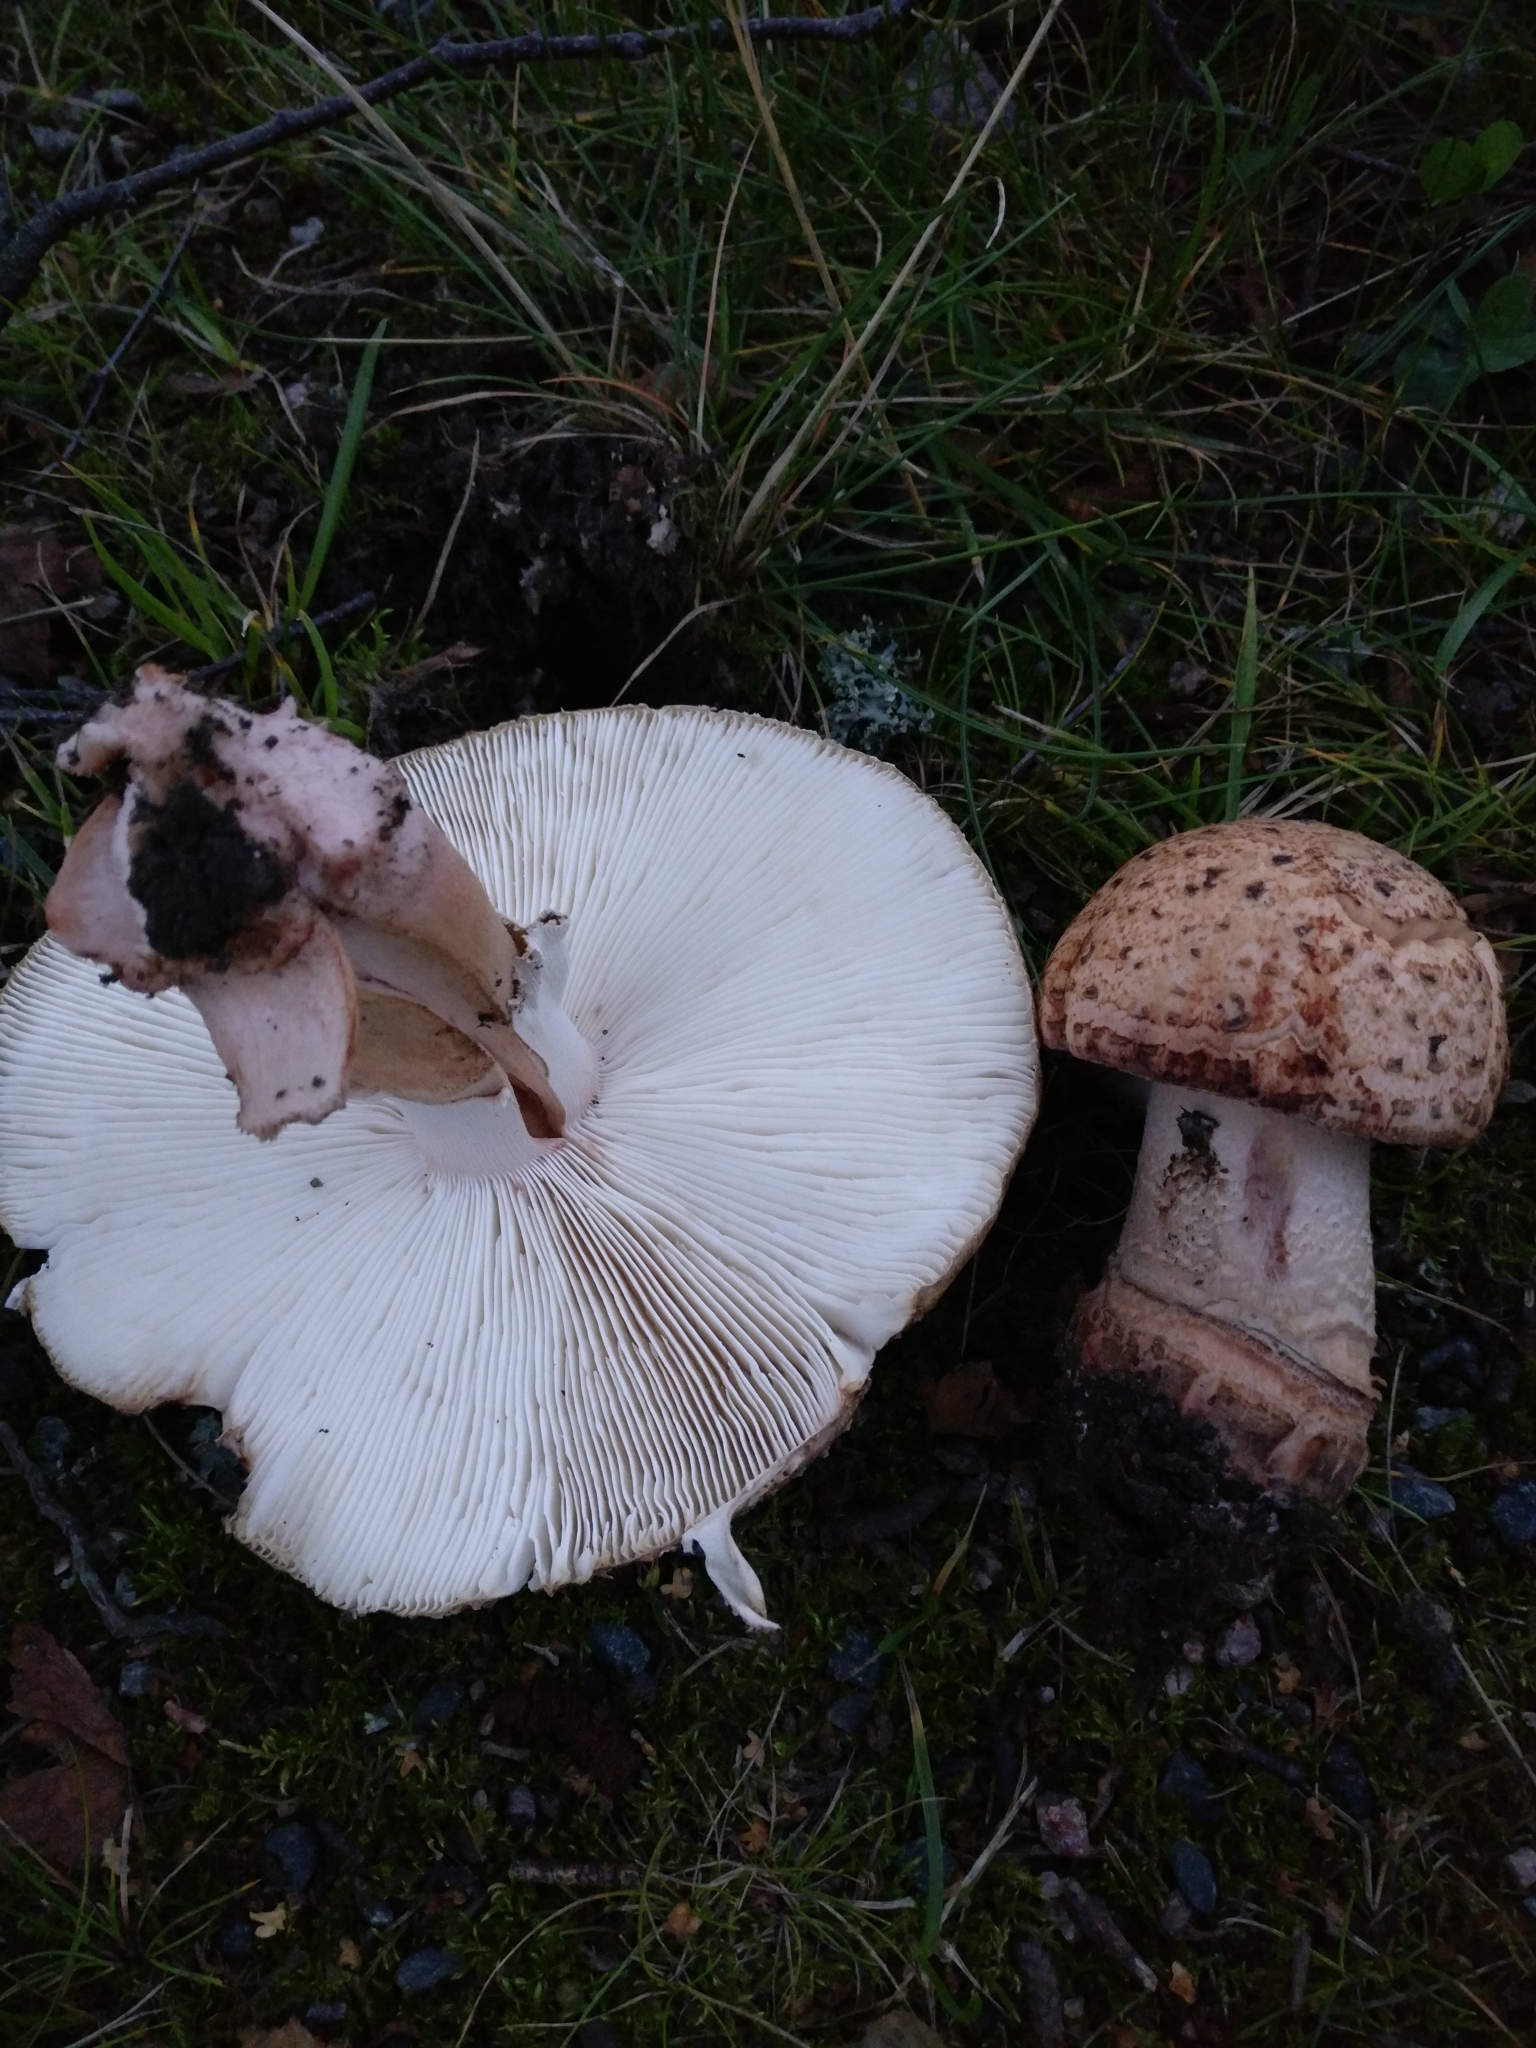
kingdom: Fungi
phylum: Basidiomycota
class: Agaricomycetes
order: Agaricales
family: Amanitaceae
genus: Amanita
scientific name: Amanita rubescens
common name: Blusher
